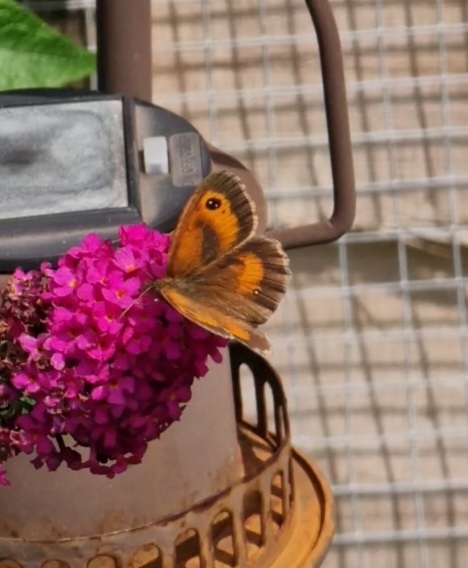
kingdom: Animalia
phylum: Arthropoda
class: Insecta
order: Lepidoptera
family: Nymphalidae
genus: Pyronia
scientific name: Pyronia tithonus
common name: Gatekeeper
